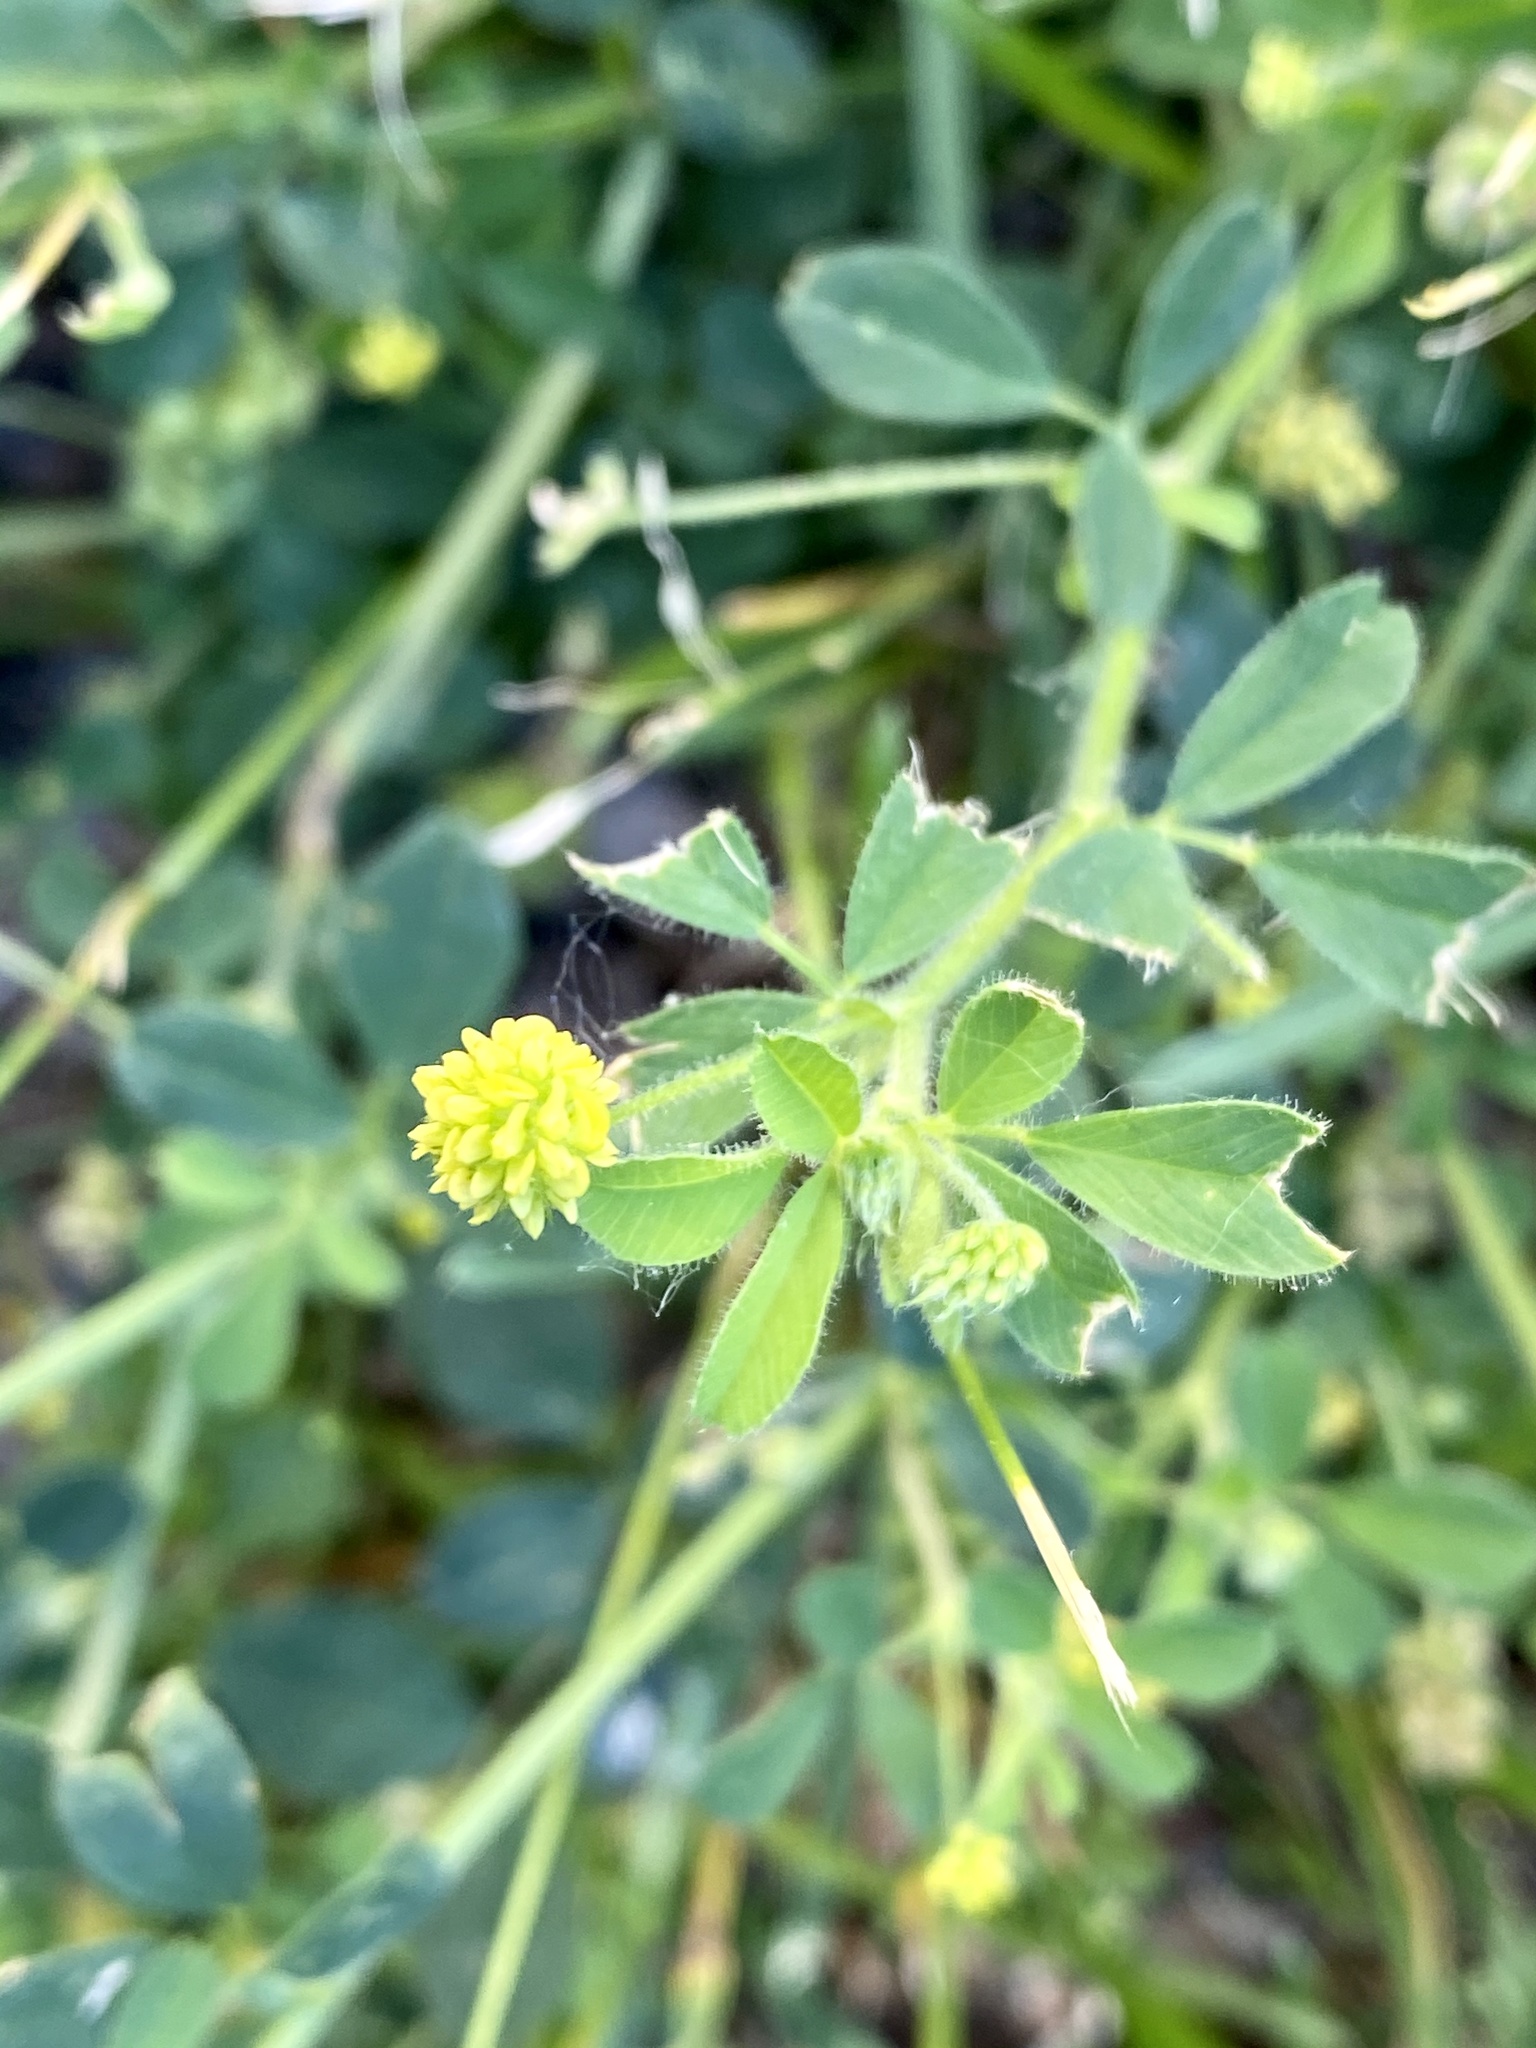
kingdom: Plantae
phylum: Tracheophyta
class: Magnoliopsida
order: Fabales
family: Fabaceae
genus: Medicago
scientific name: Medicago lupulina
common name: Black medick
